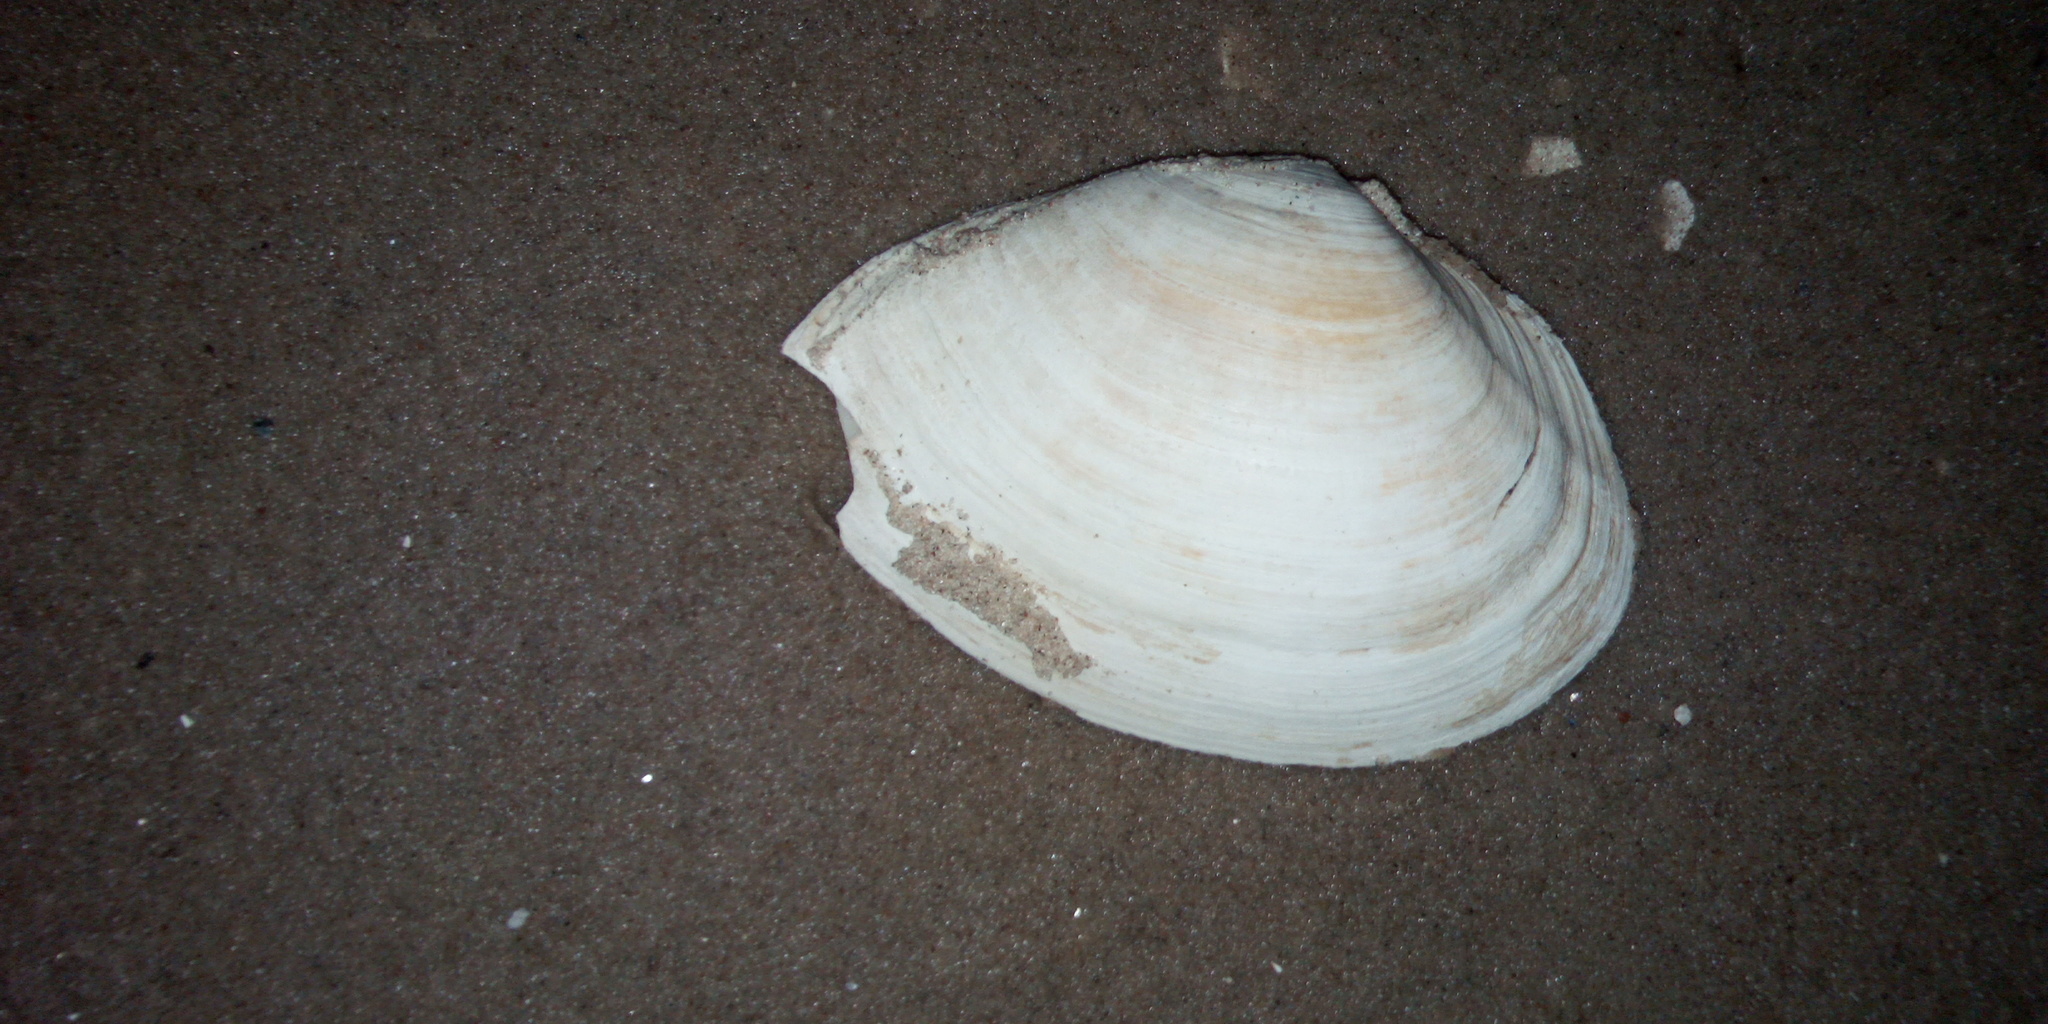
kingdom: Animalia
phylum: Mollusca
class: Bivalvia
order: Myida
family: Myidae
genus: Mya
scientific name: Mya arenaria
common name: Soft-shelled clam
